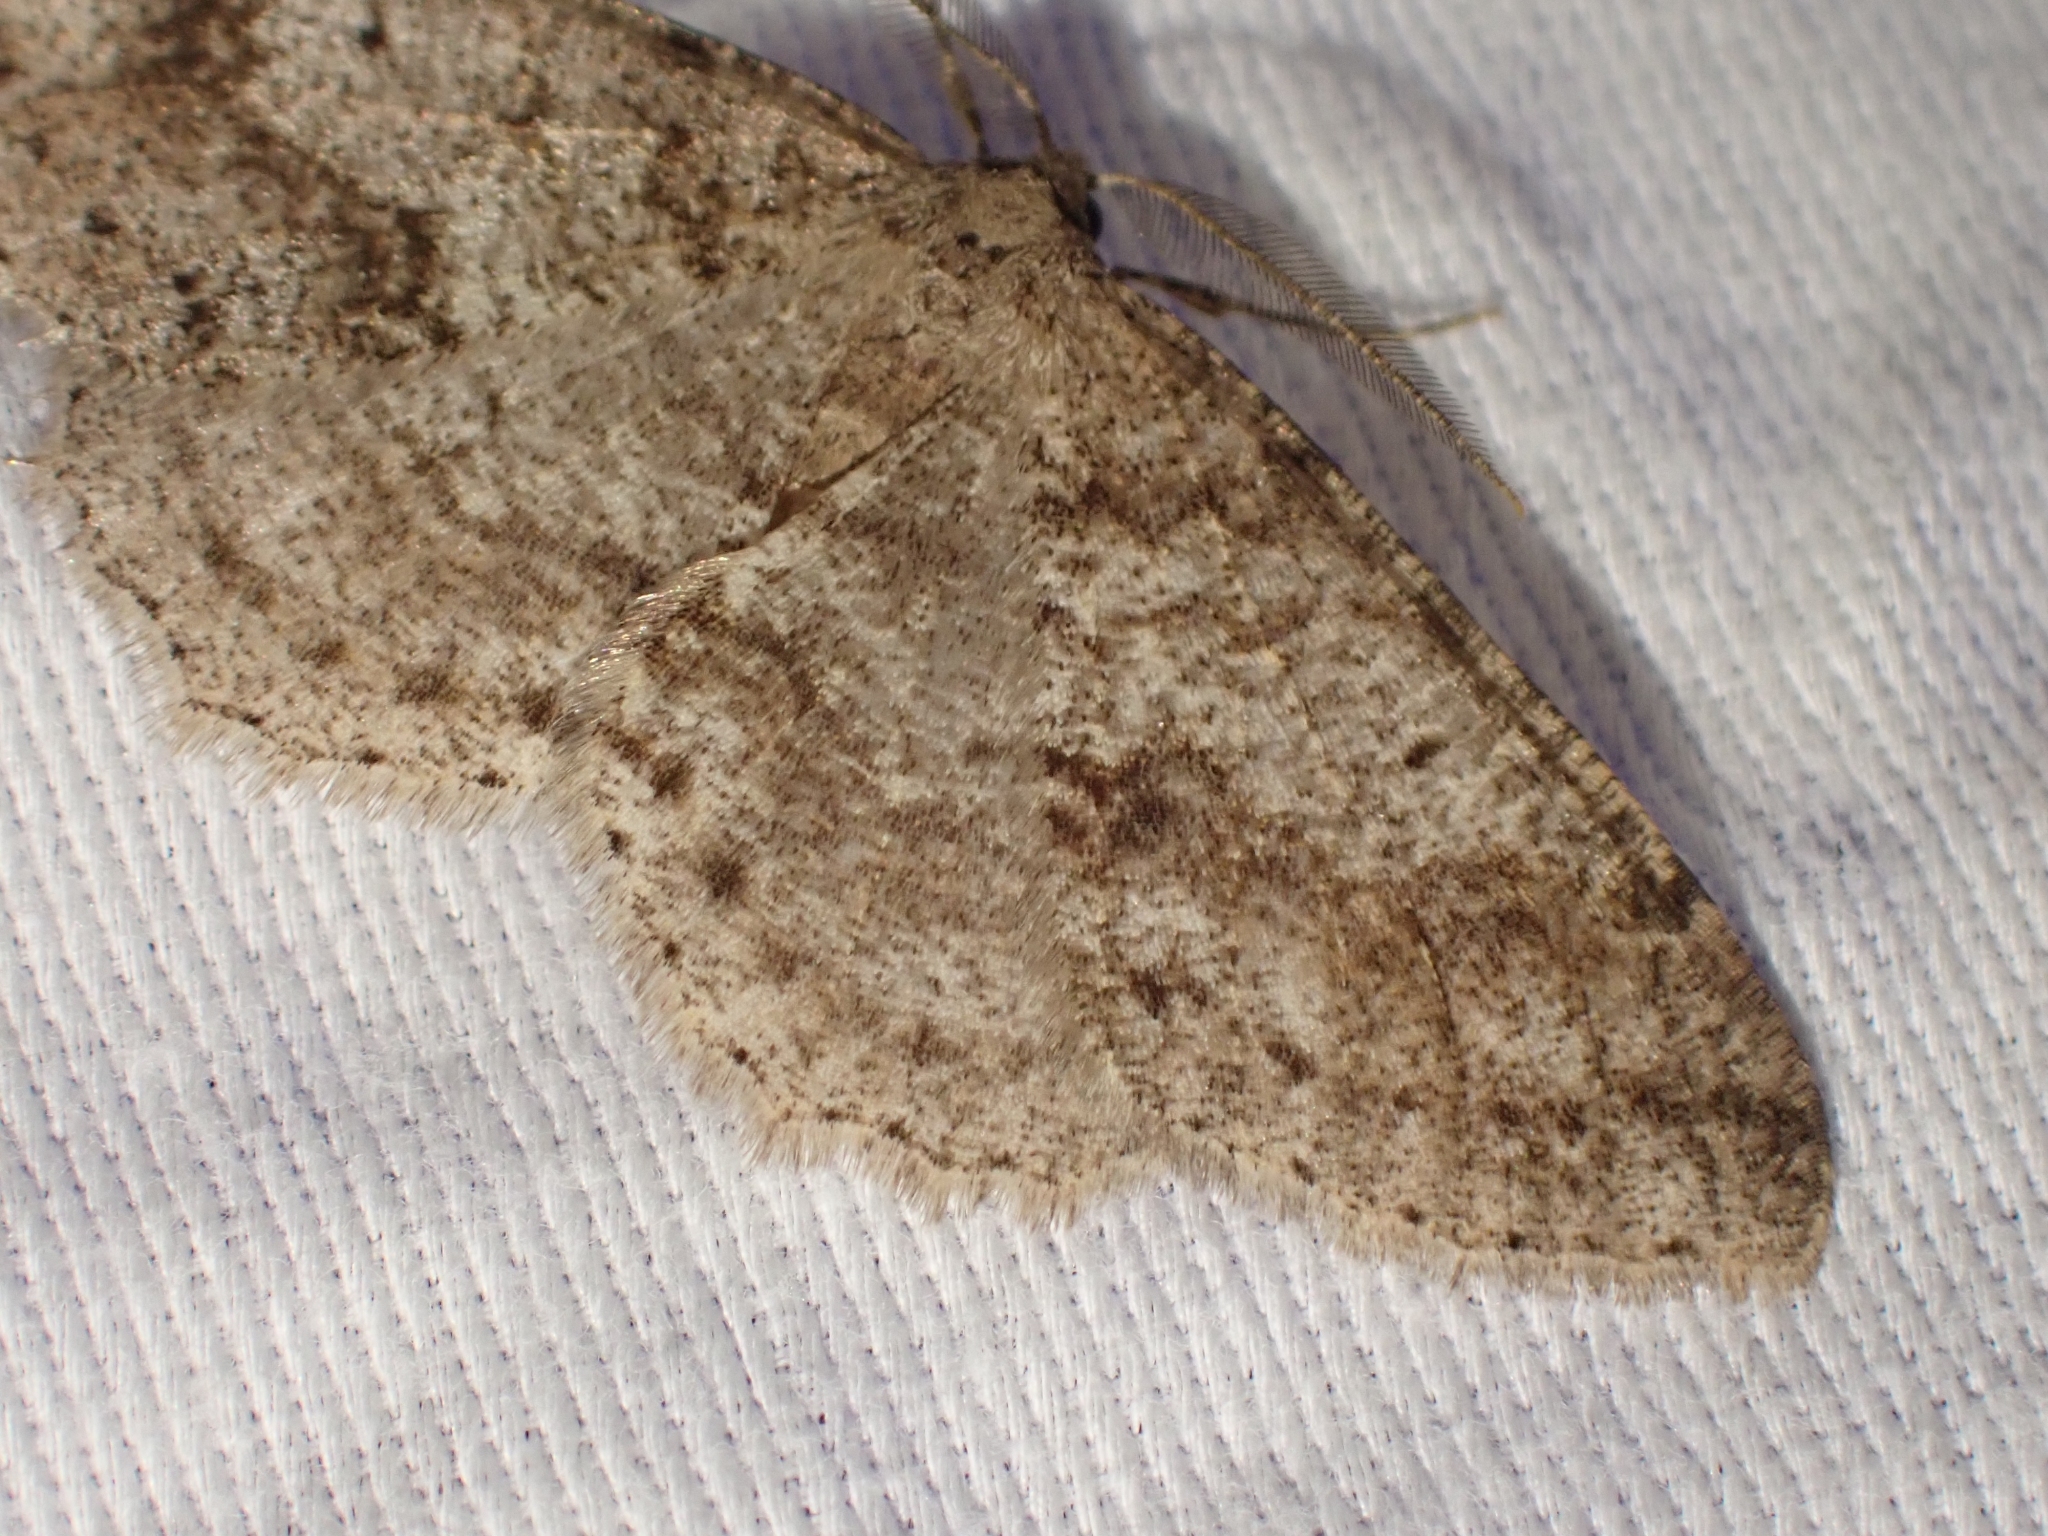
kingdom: Animalia
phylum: Arthropoda
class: Insecta
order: Lepidoptera
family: Geometridae
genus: Melanolophia
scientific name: Melanolophia imitata
